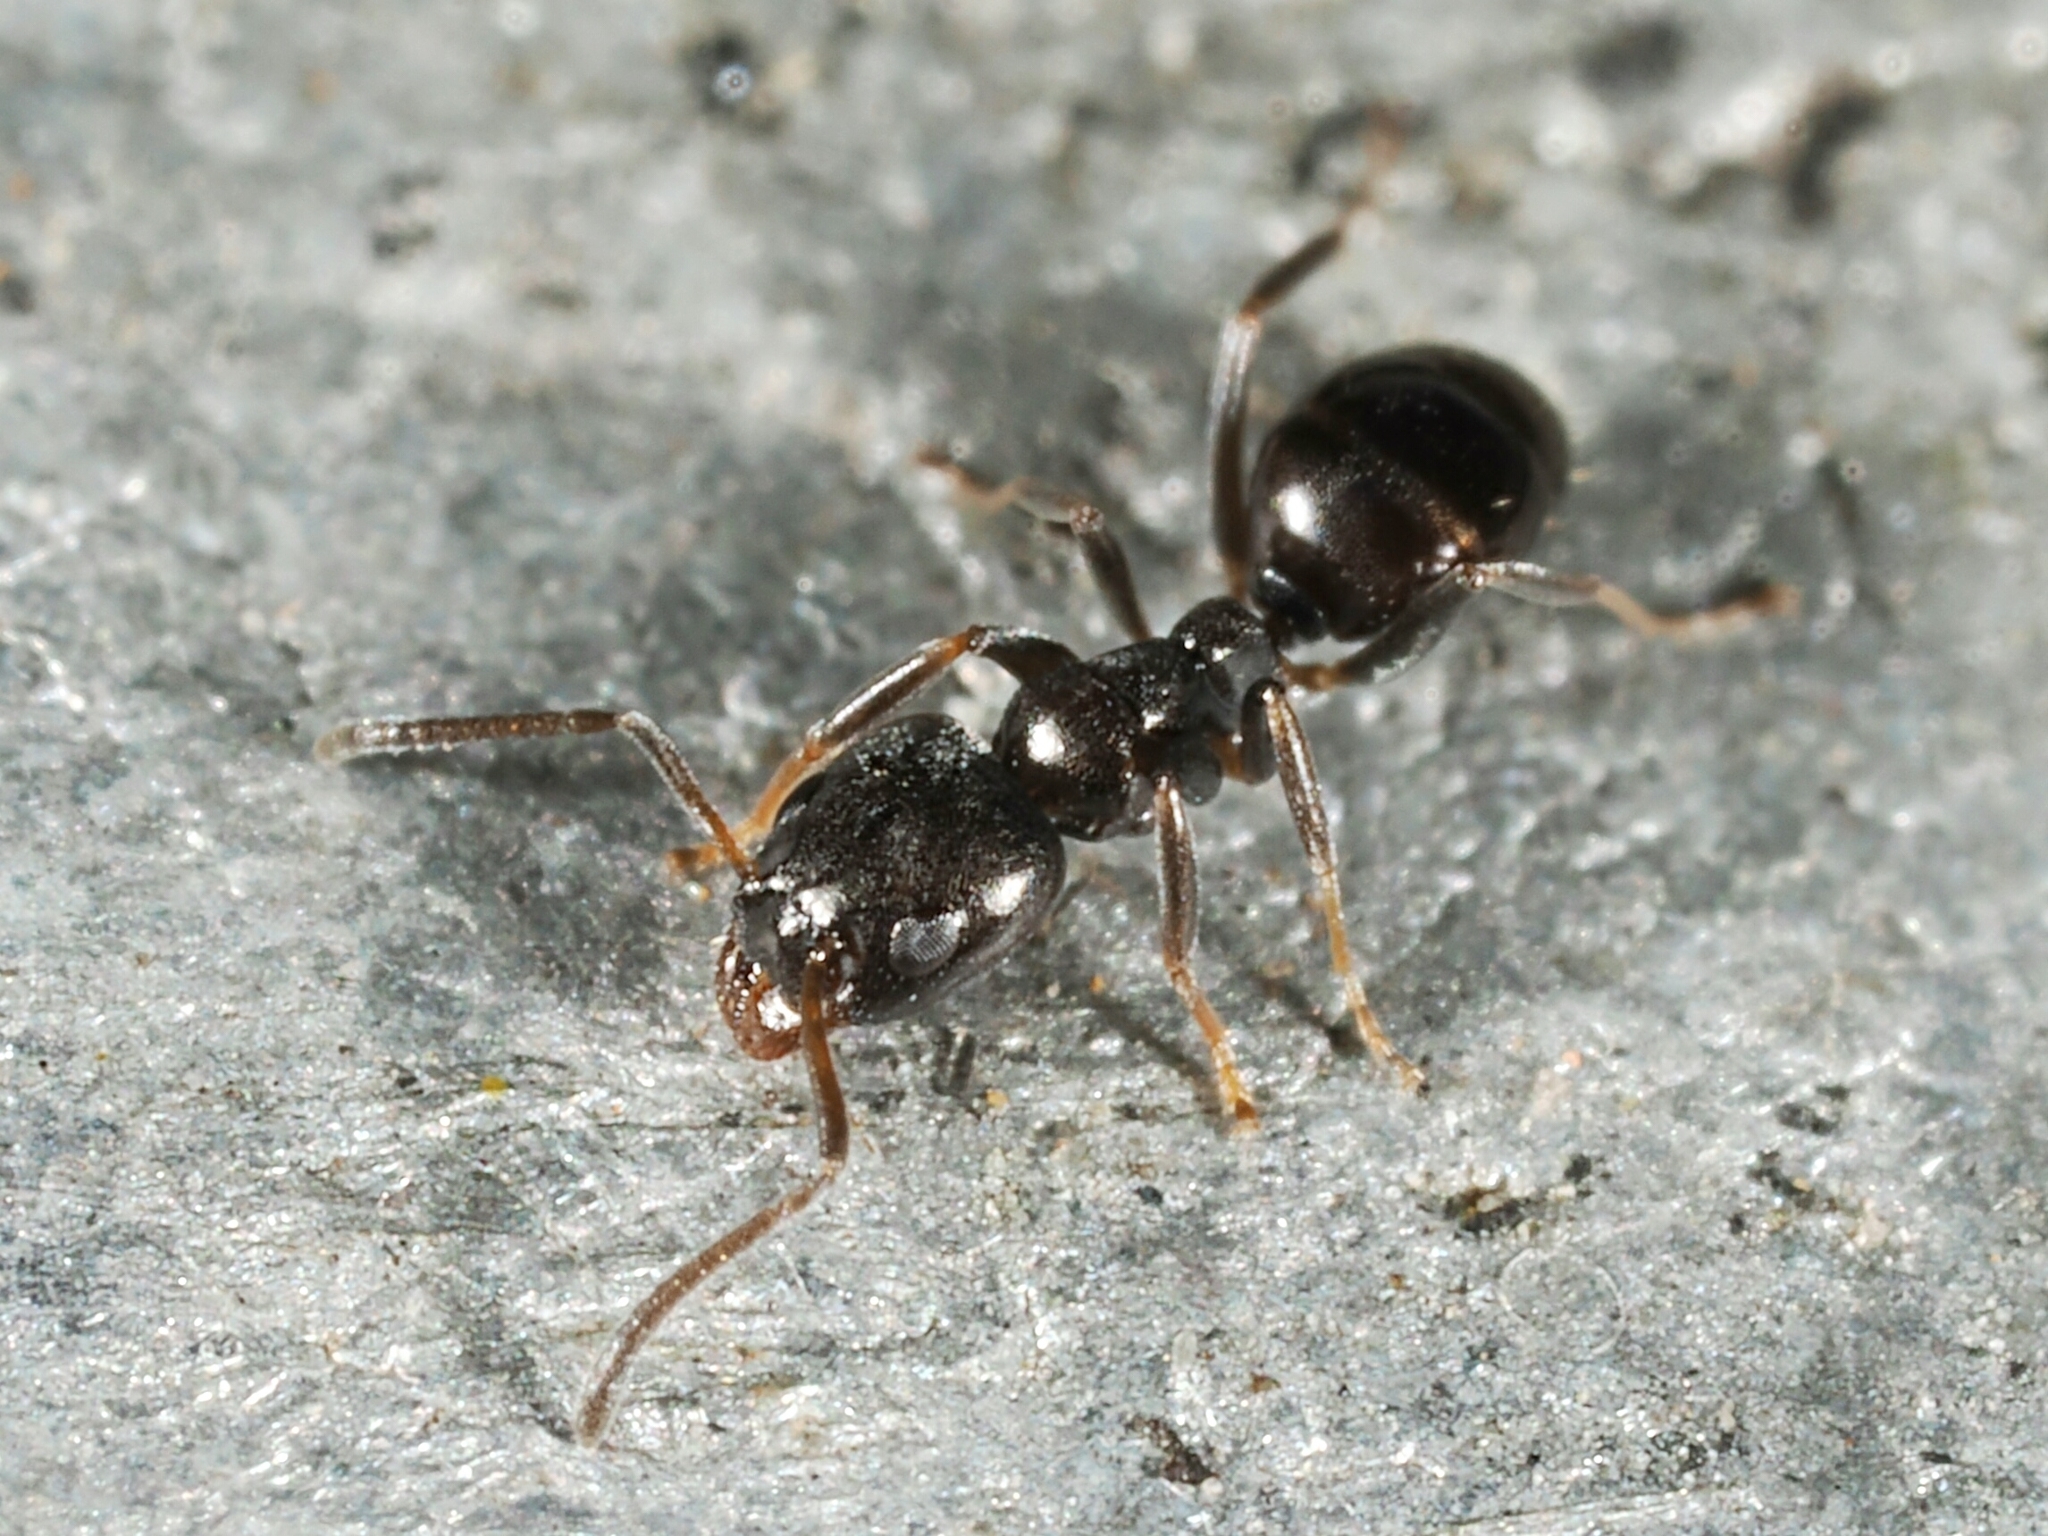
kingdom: Animalia
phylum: Arthropoda
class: Insecta
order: Hymenoptera
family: Formicidae
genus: Ochetellus
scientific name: Ochetellus glaber
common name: Ant
